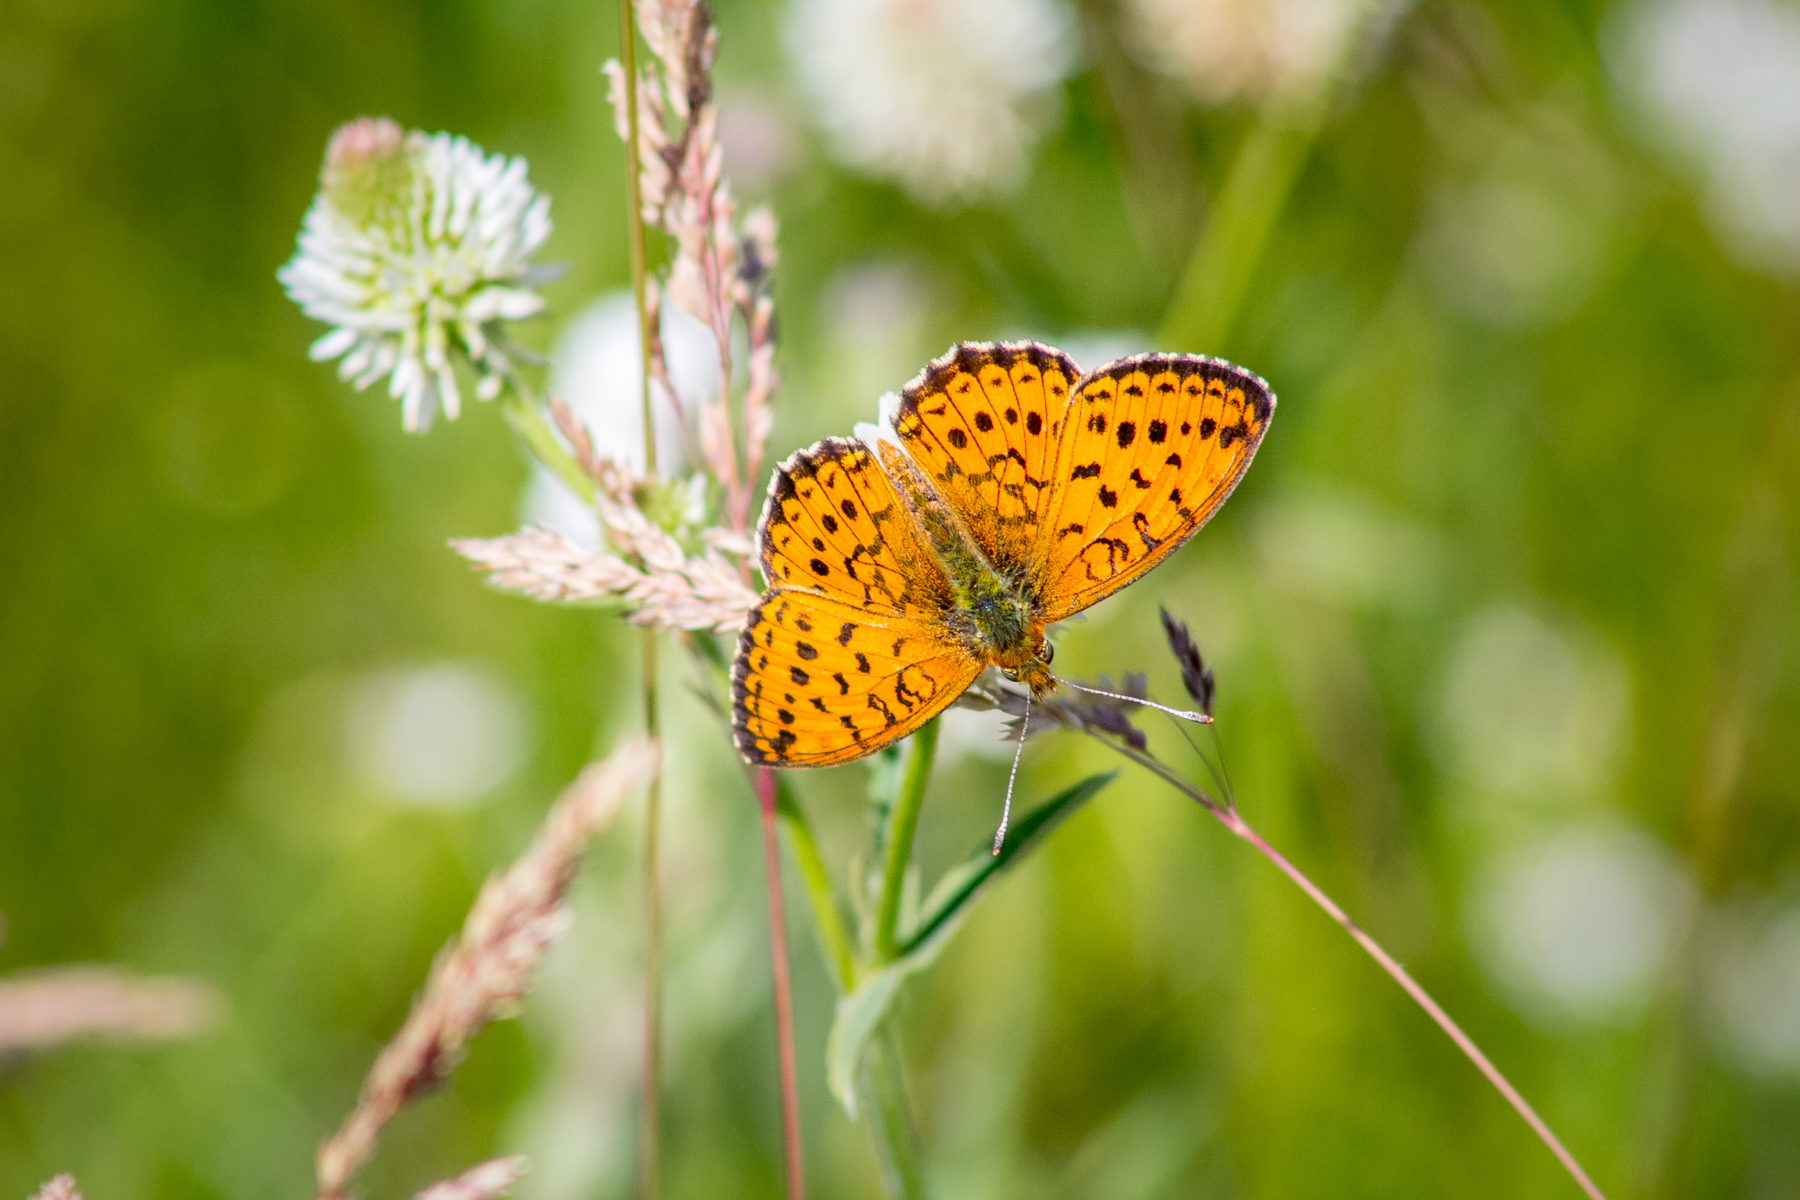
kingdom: Animalia
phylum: Arthropoda
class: Insecta
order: Lepidoptera
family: Nymphalidae
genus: Brenthis
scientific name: Brenthis ino
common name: Lesser marbled fritillary
